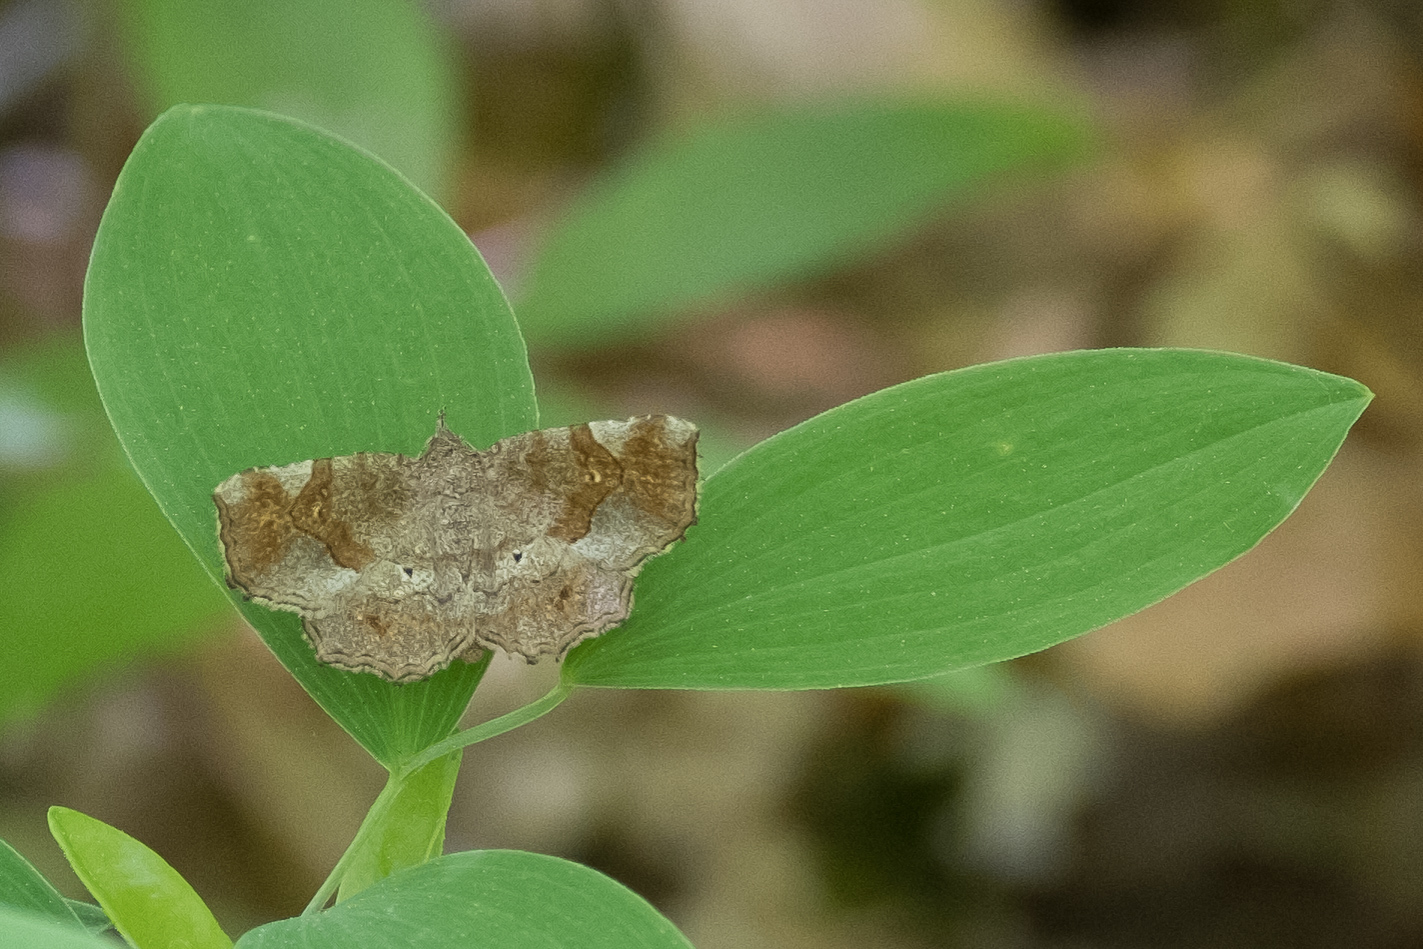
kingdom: Animalia
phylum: Arthropoda
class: Insecta
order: Lepidoptera
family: Erebidae
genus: Pangrapta
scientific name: Pangrapta decoralis
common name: Decorated owlet
